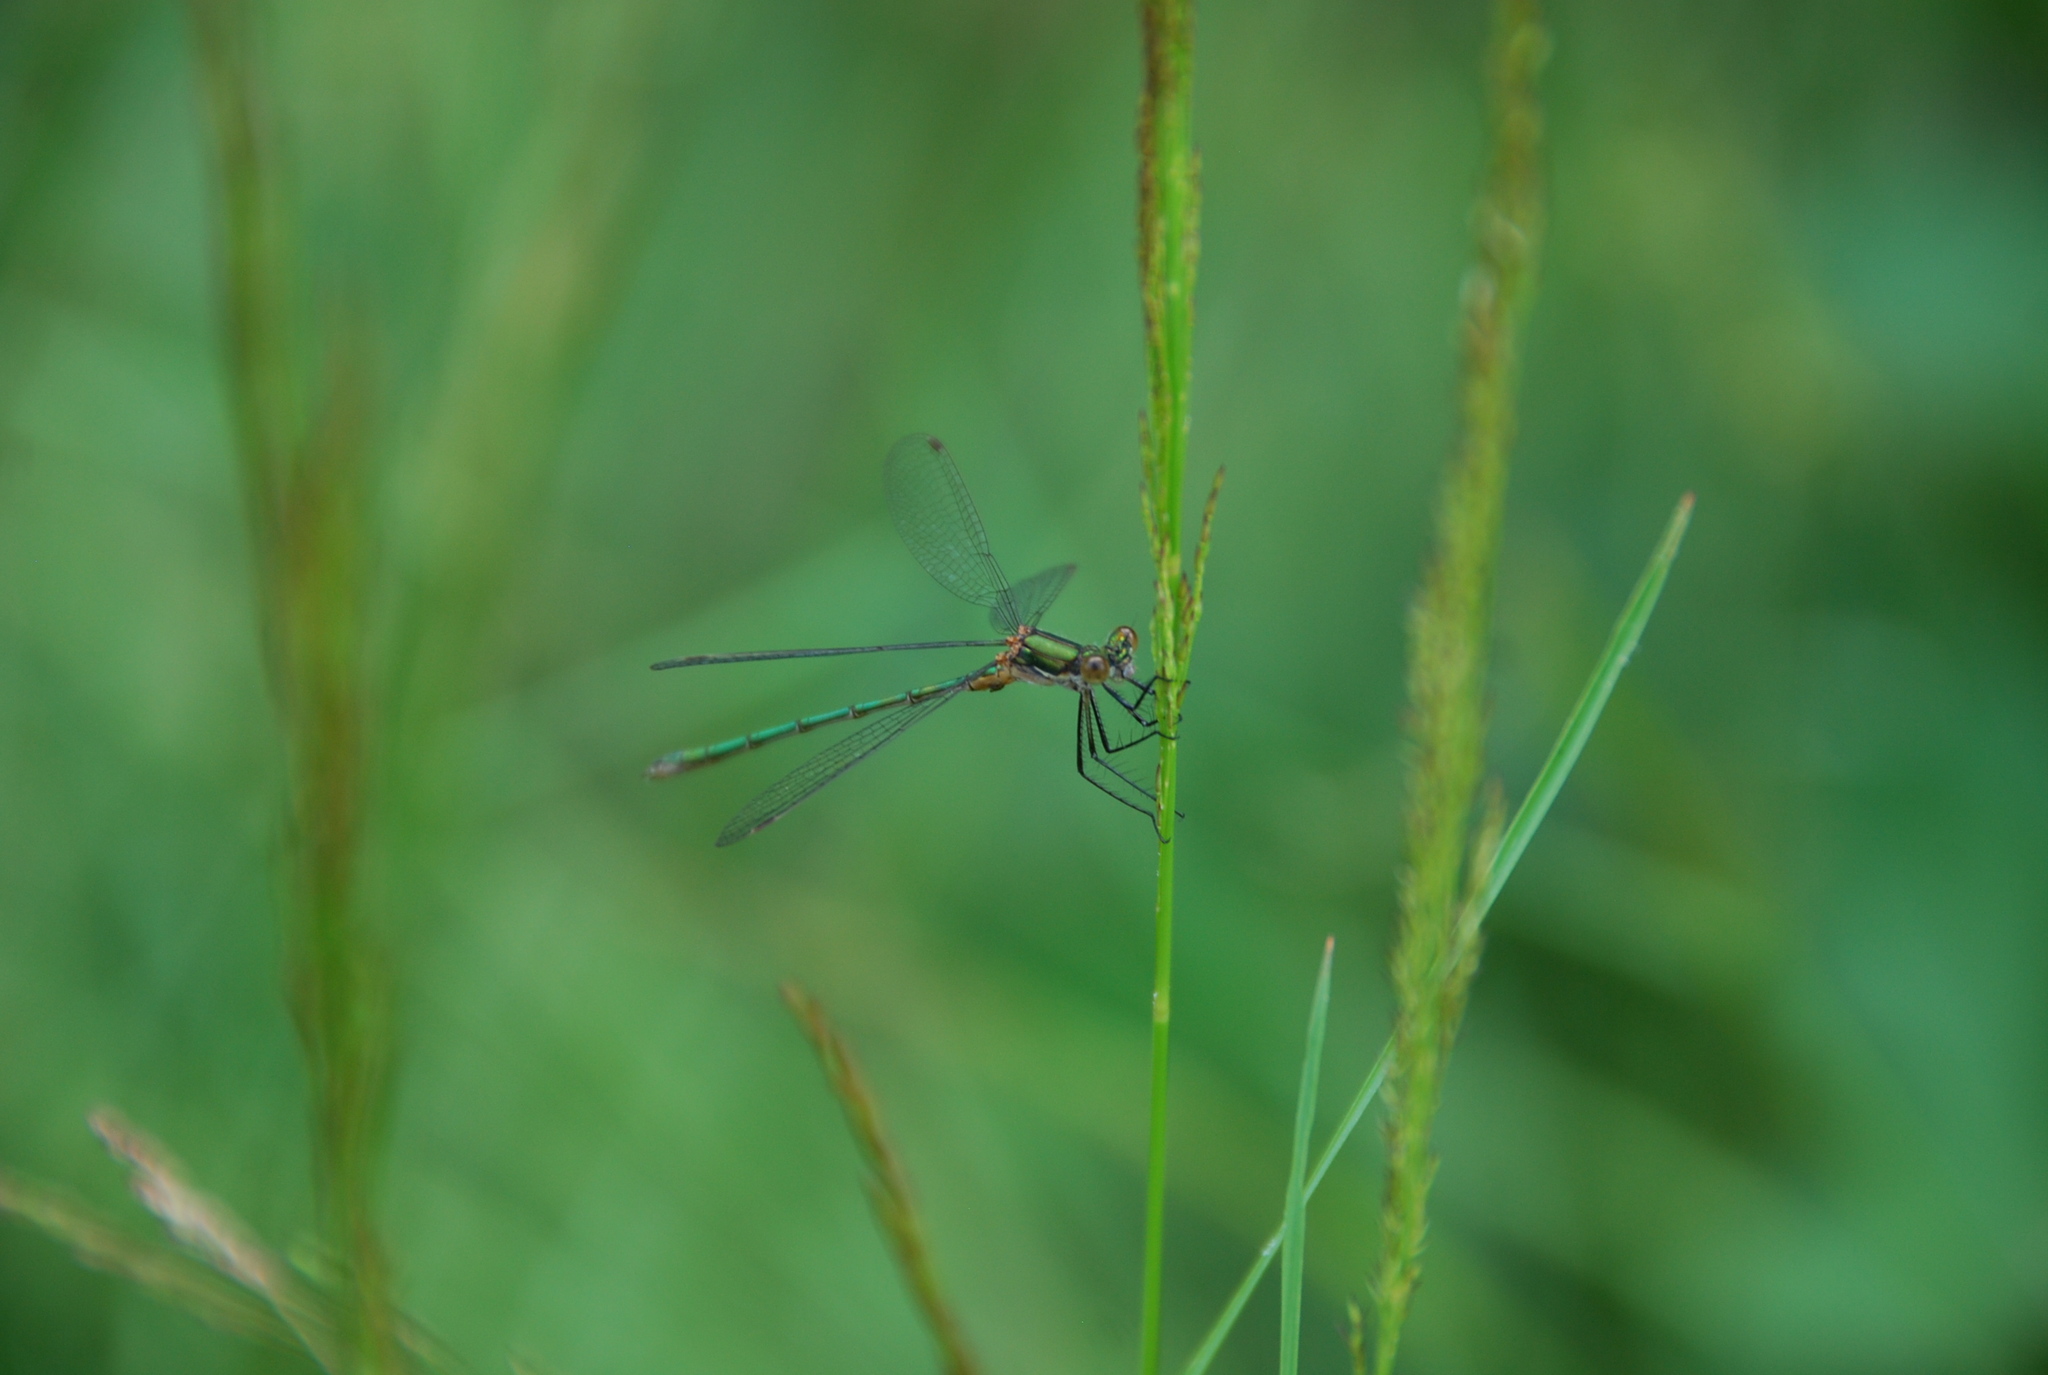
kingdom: Animalia
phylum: Arthropoda
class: Insecta
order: Odonata
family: Lestidae
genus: Lestes
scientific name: Lestes sponsa
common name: Common spreadwing
